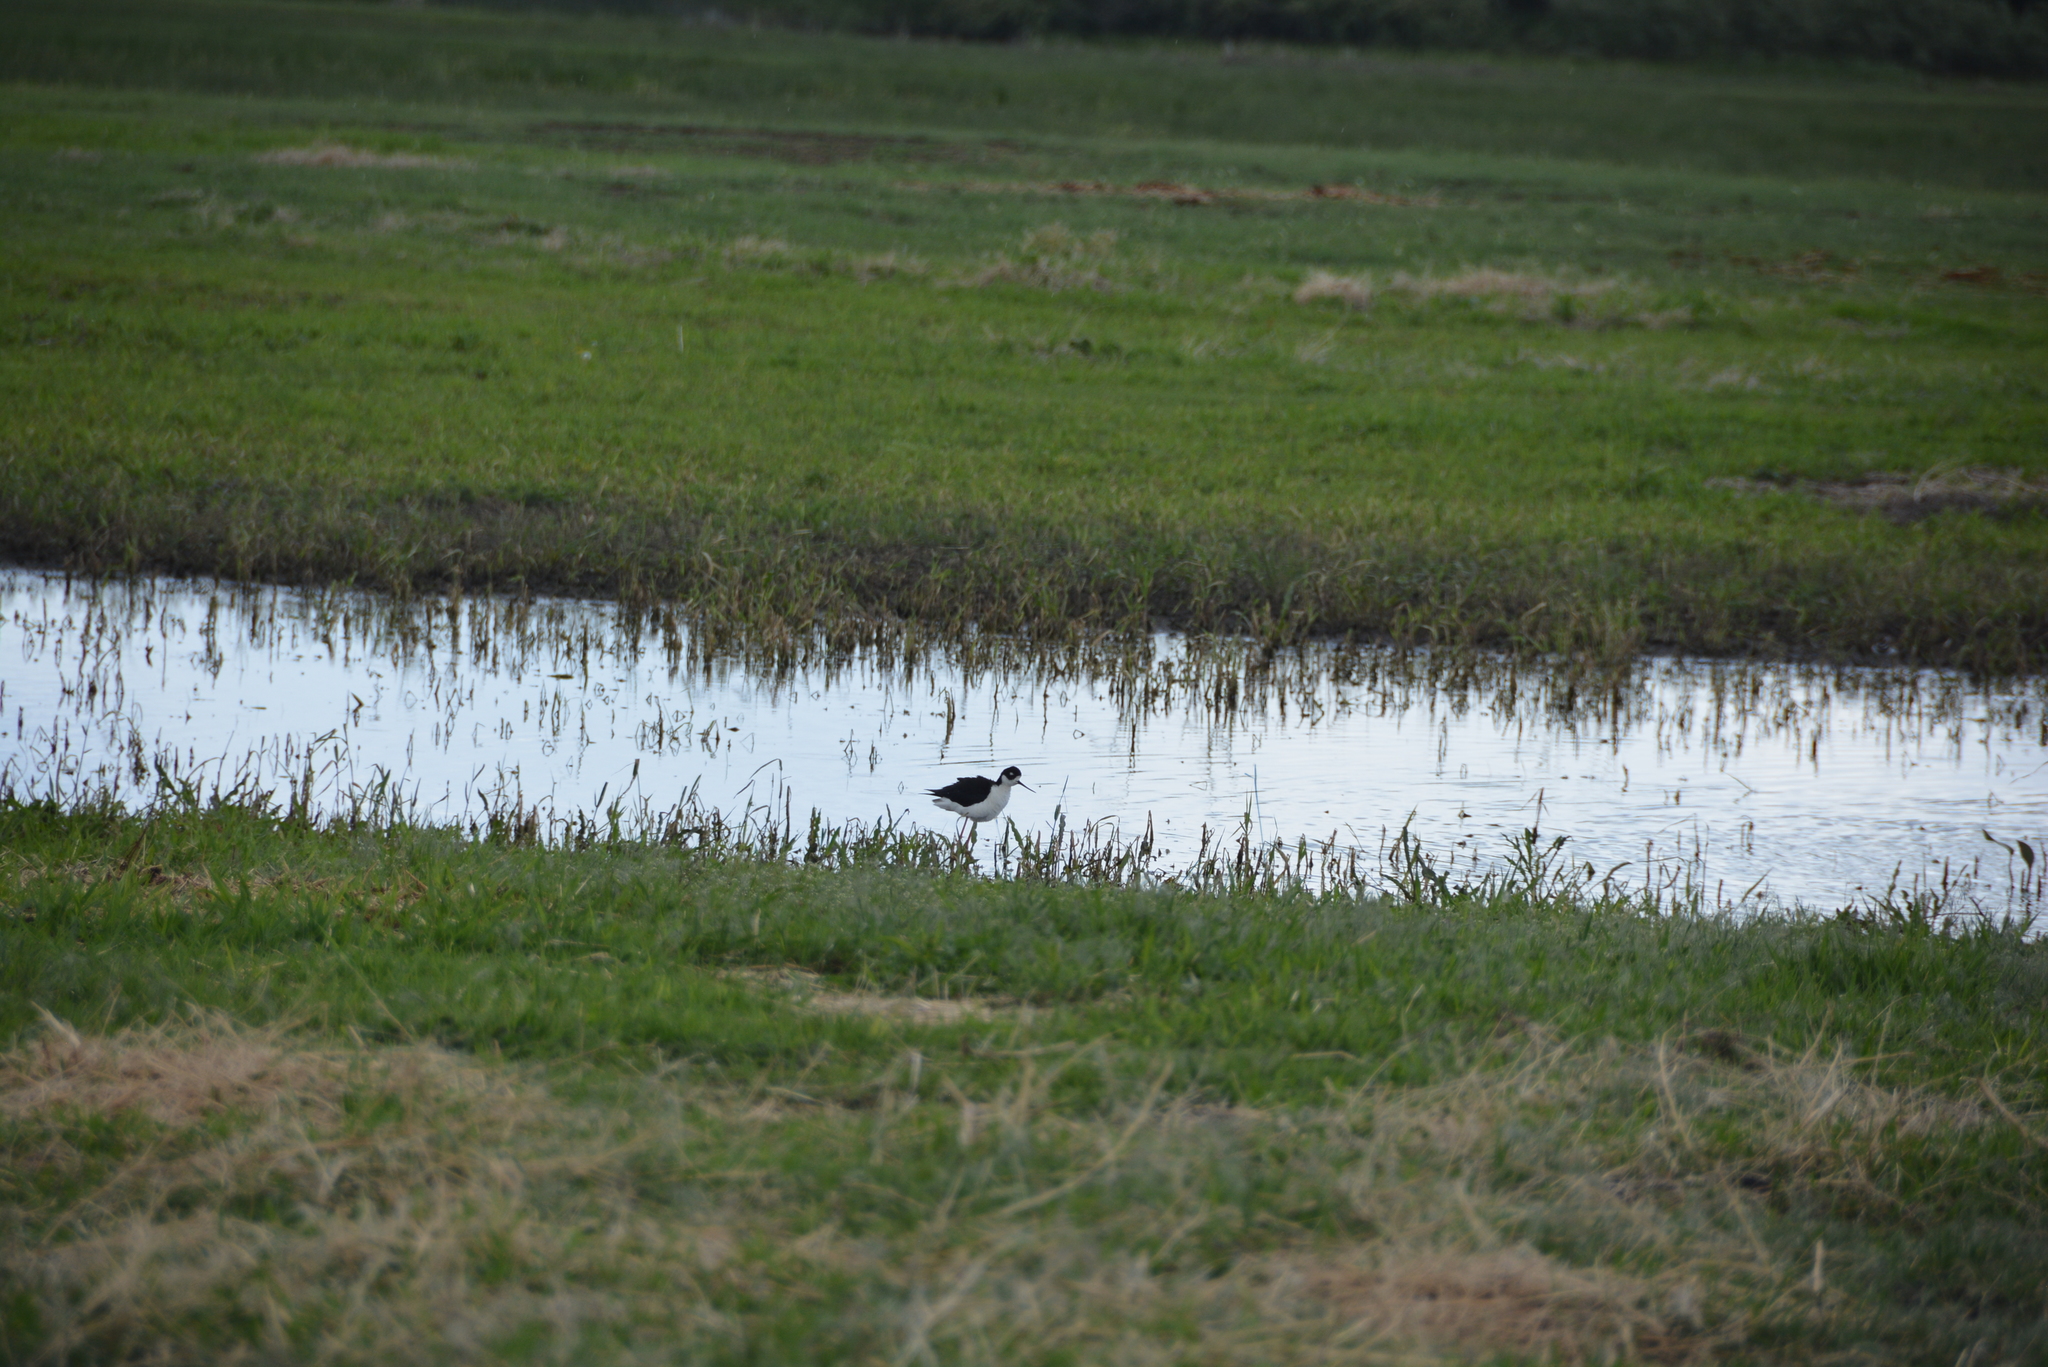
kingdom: Animalia
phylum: Chordata
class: Aves
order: Charadriiformes
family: Recurvirostridae
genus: Himantopus
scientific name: Himantopus mexicanus
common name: Black-necked stilt
